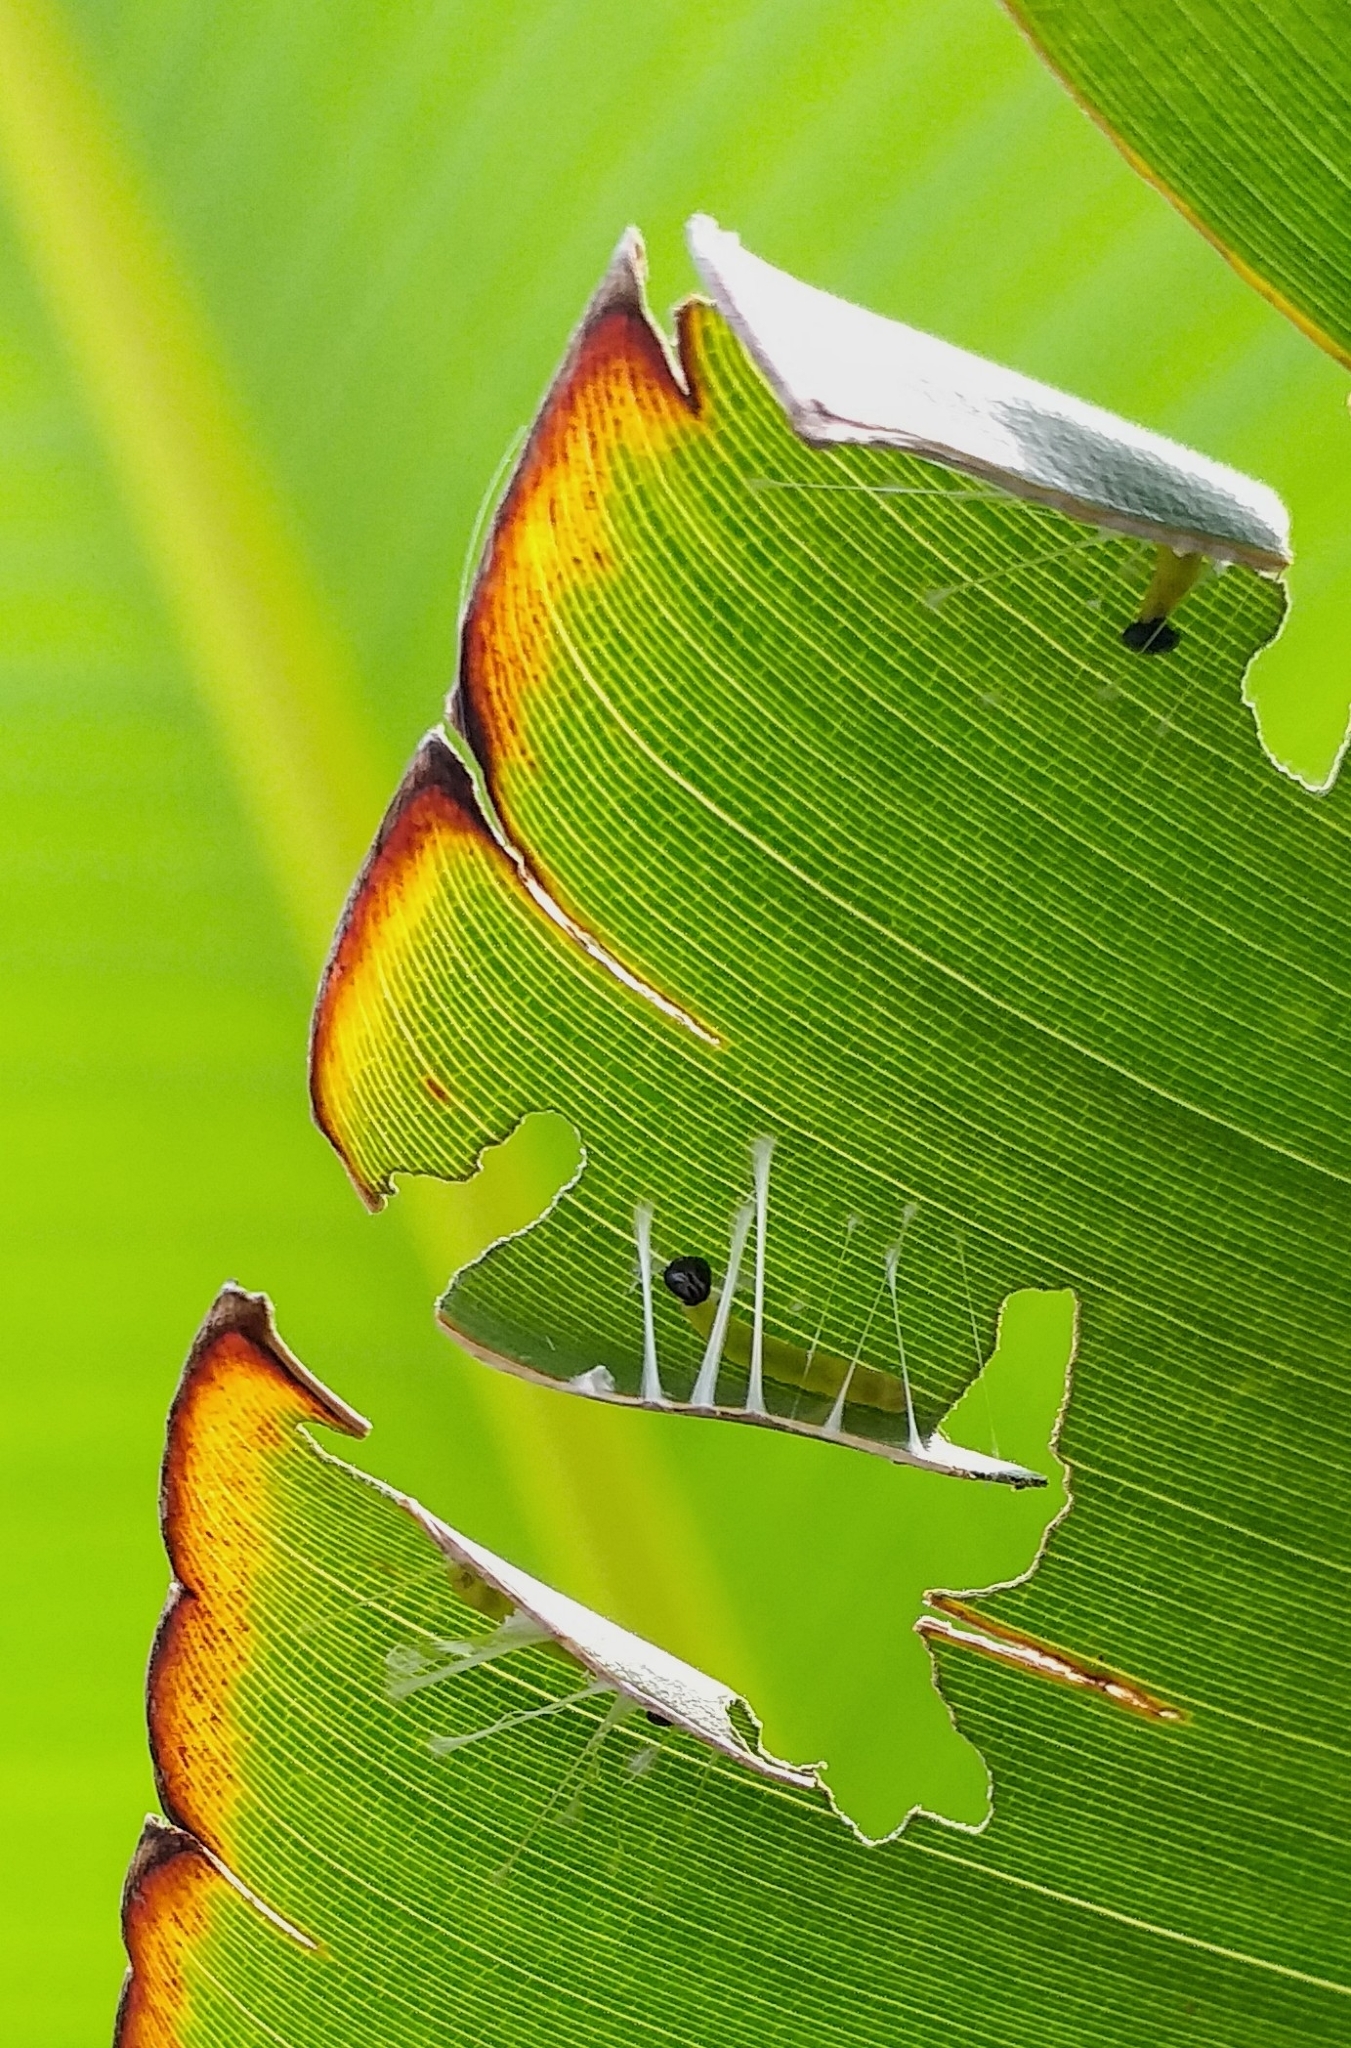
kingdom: Animalia
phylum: Arthropoda
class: Insecta
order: Lepidoptera
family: Hesperiidae
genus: Erionota
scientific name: Erionota torus
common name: Rounded palm-redeye
